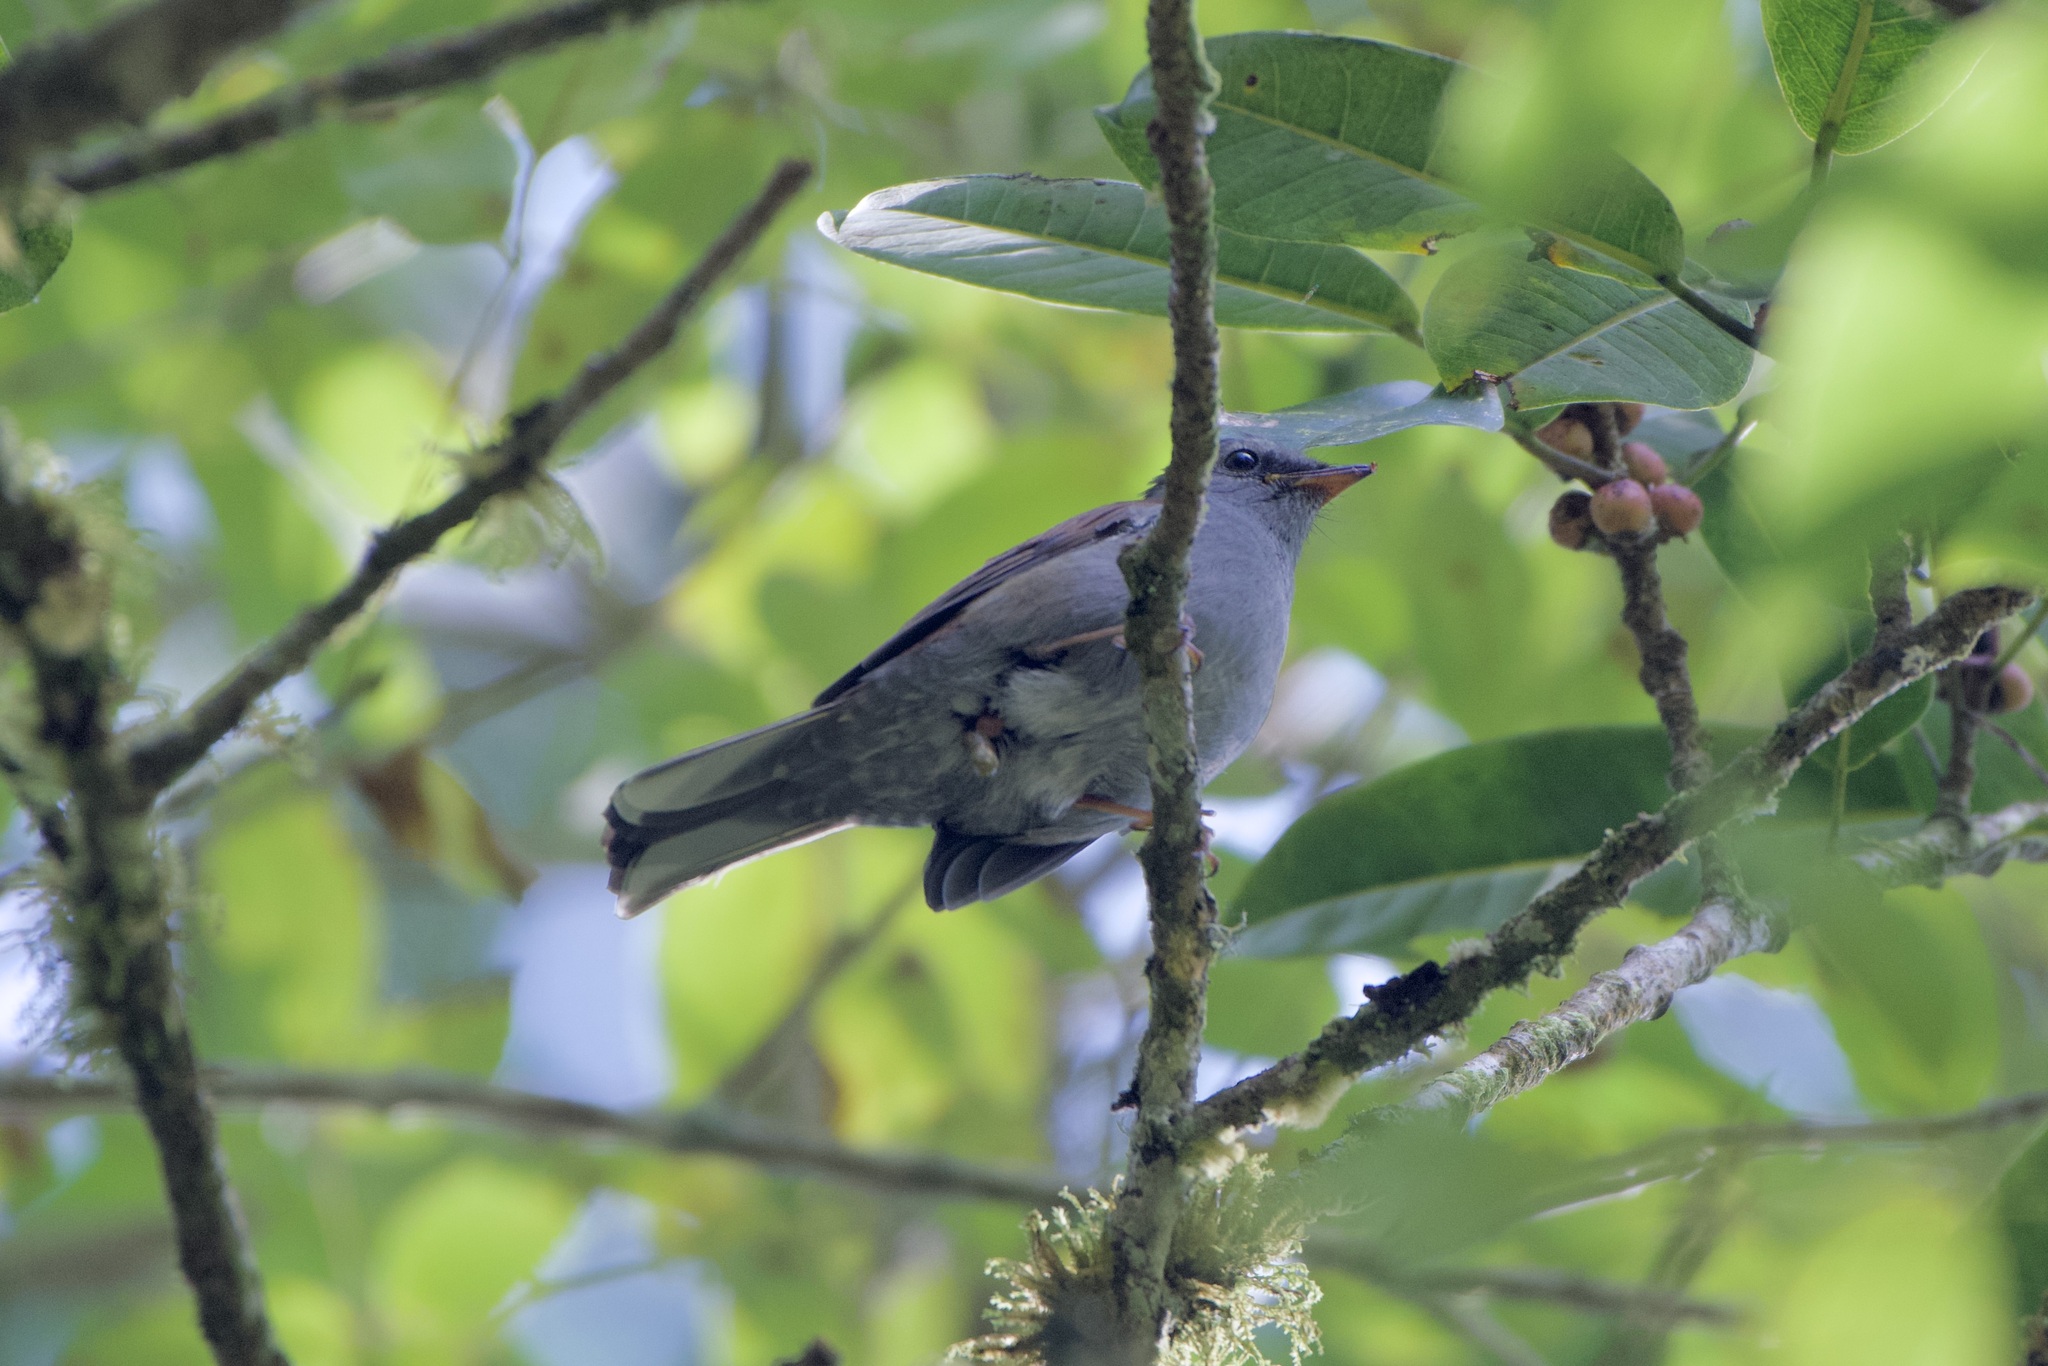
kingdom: Animalia
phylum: Chordata
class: Aves
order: Passeriformes
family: Turdidae
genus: Myadestes
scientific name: Myadestes ralloides
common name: Andean solitaire
